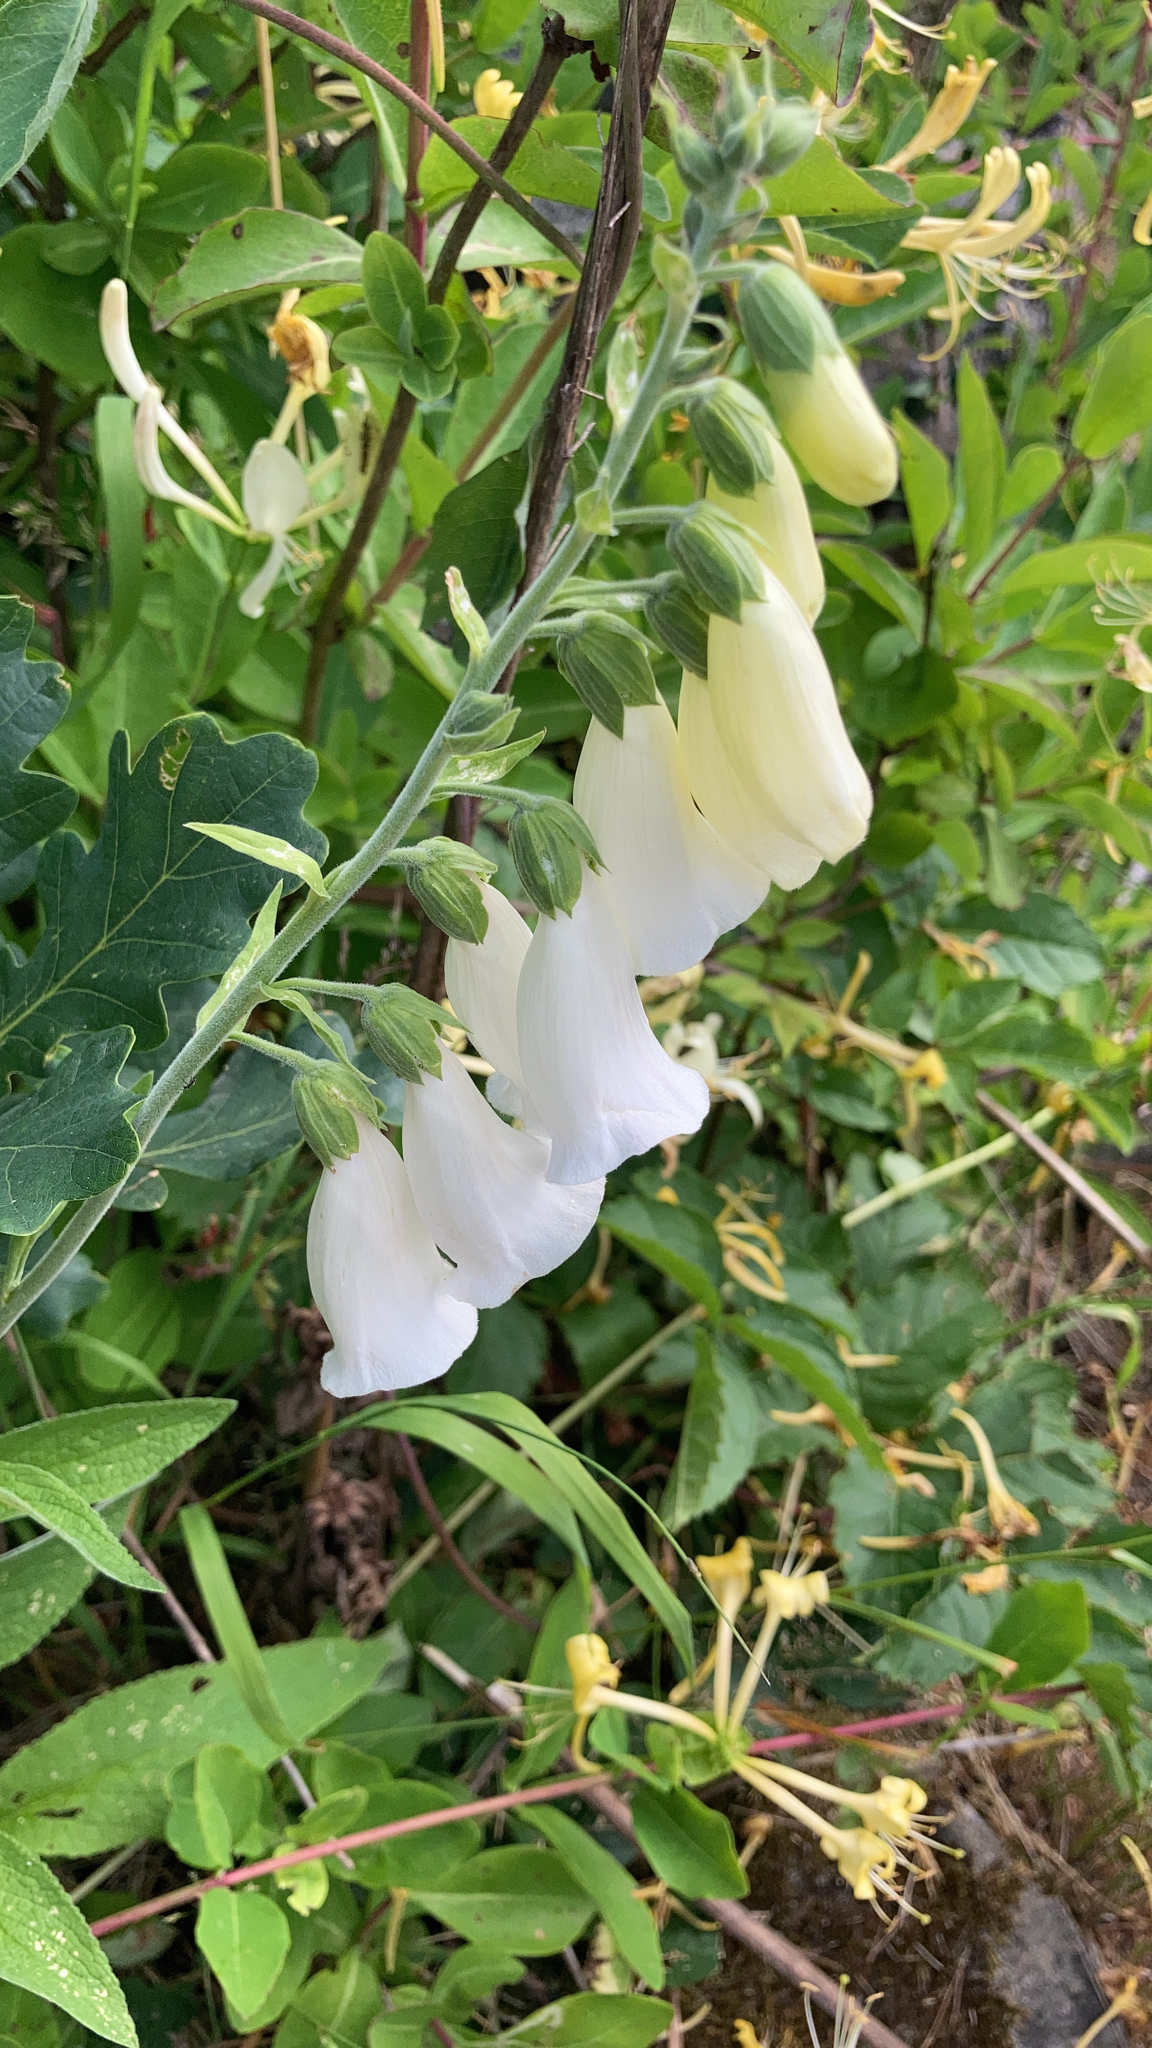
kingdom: Plantae
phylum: Tracheophyta
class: Magnoliopsida
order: Lamiales
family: Plantaginaceae
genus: Digitalis
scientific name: Digitalis purpurea
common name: Foxglove
